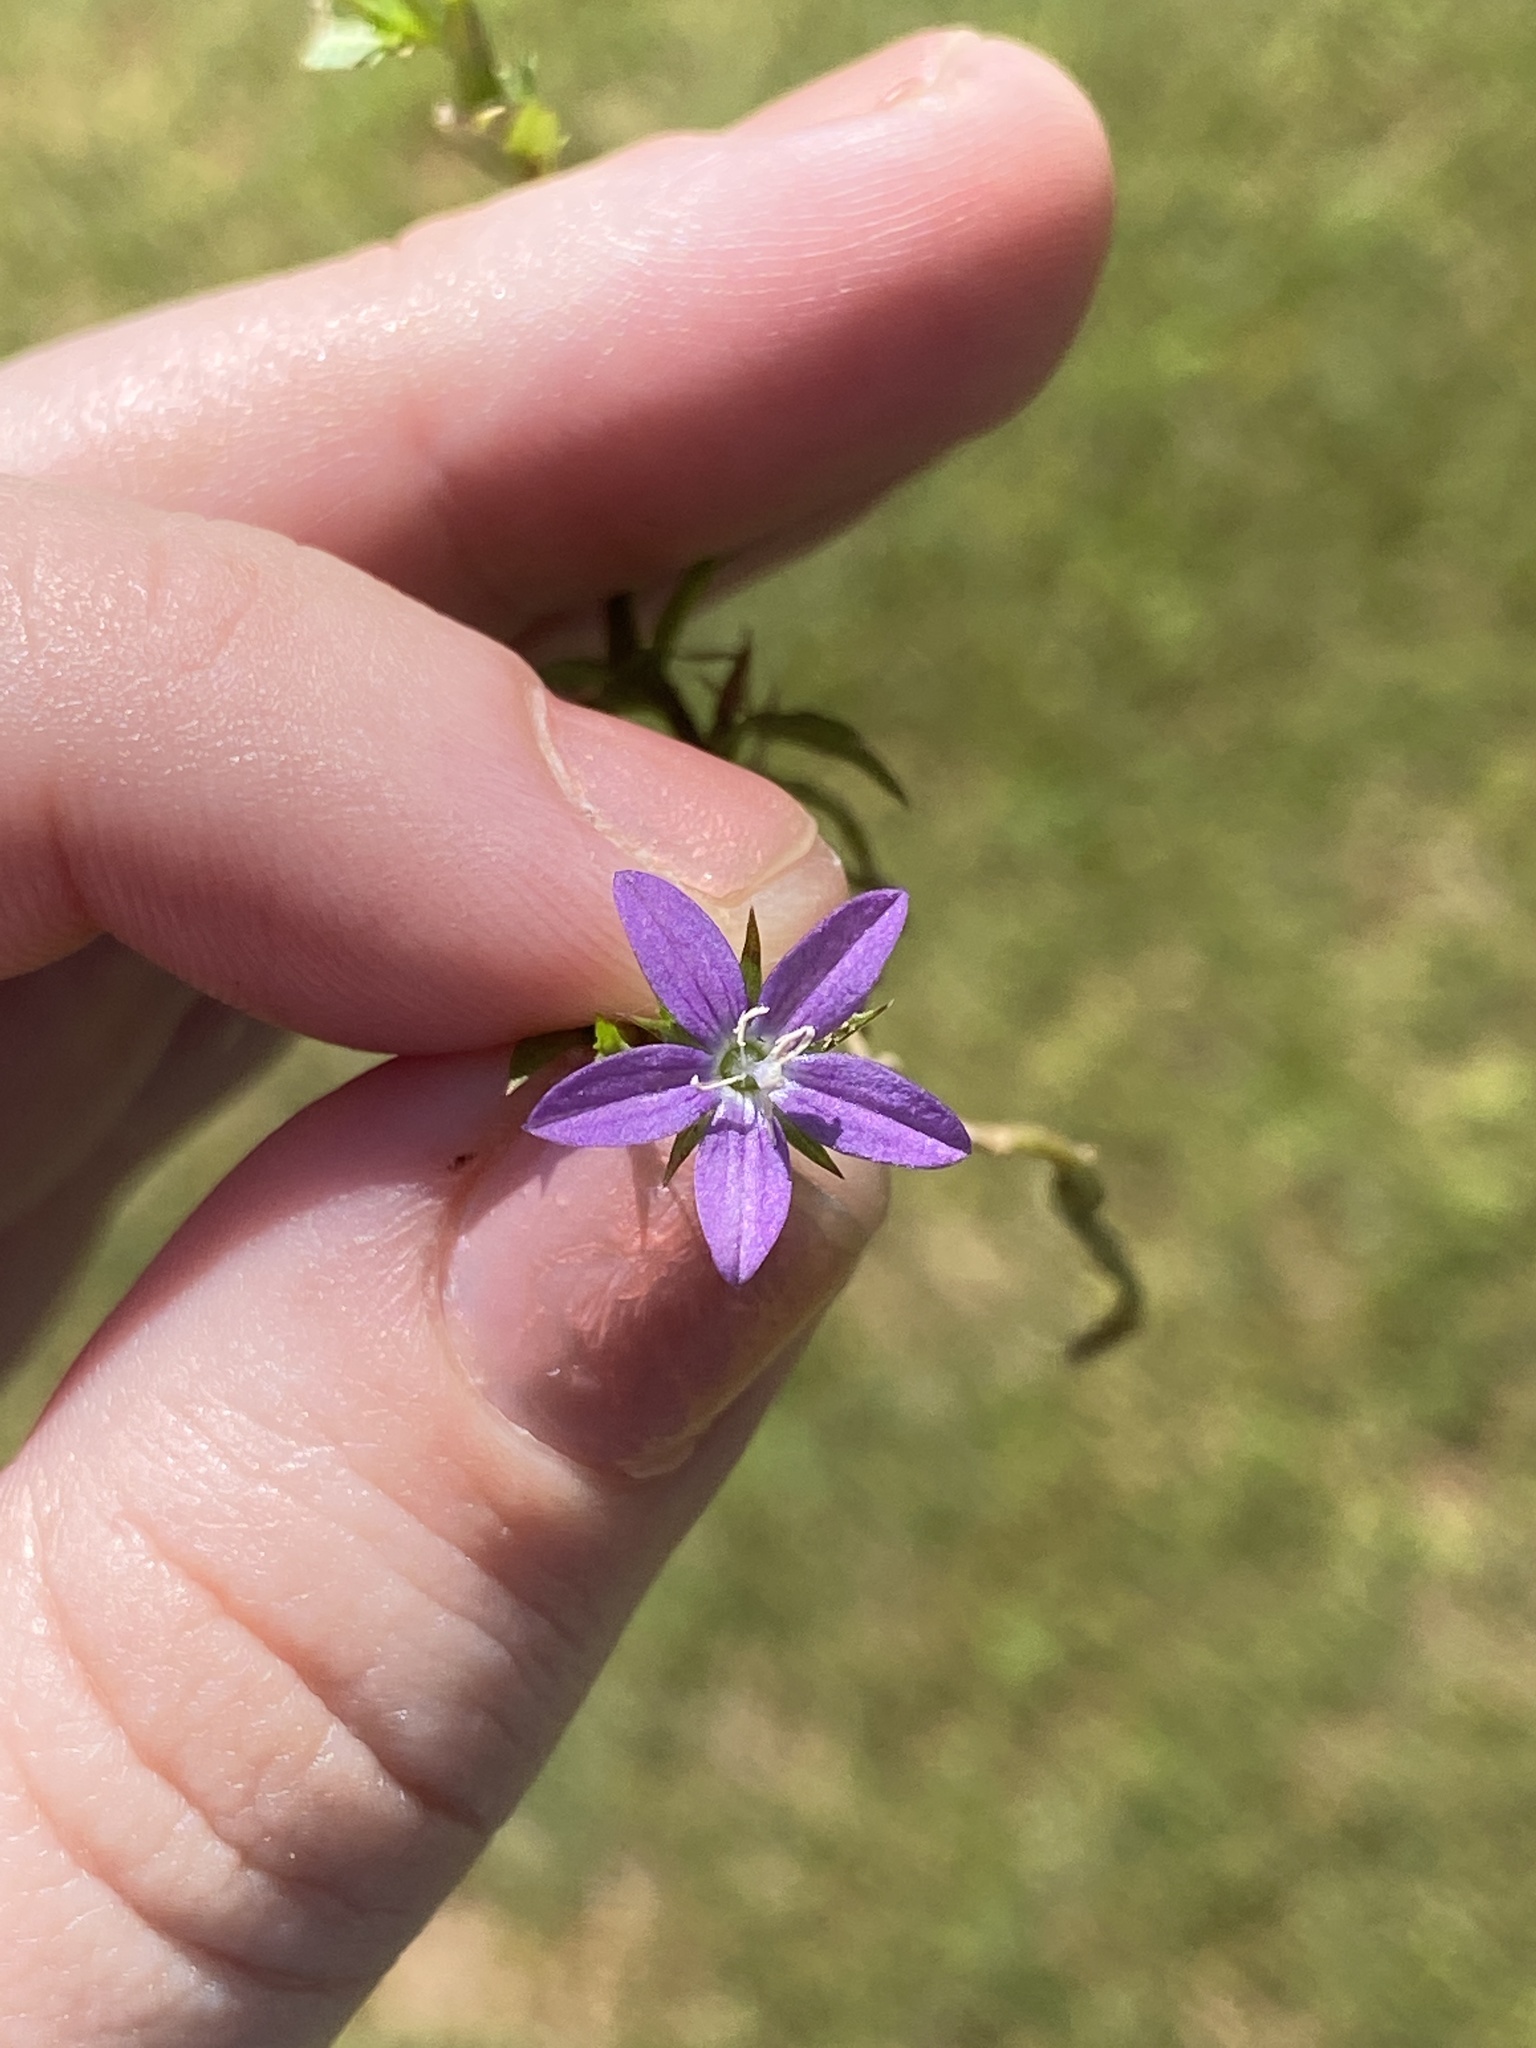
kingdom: Plantae
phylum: Tracheophyta
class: Magnoliopsida
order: Asterales
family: Campanulaceae
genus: Triodanis
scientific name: Triodanis biflora
